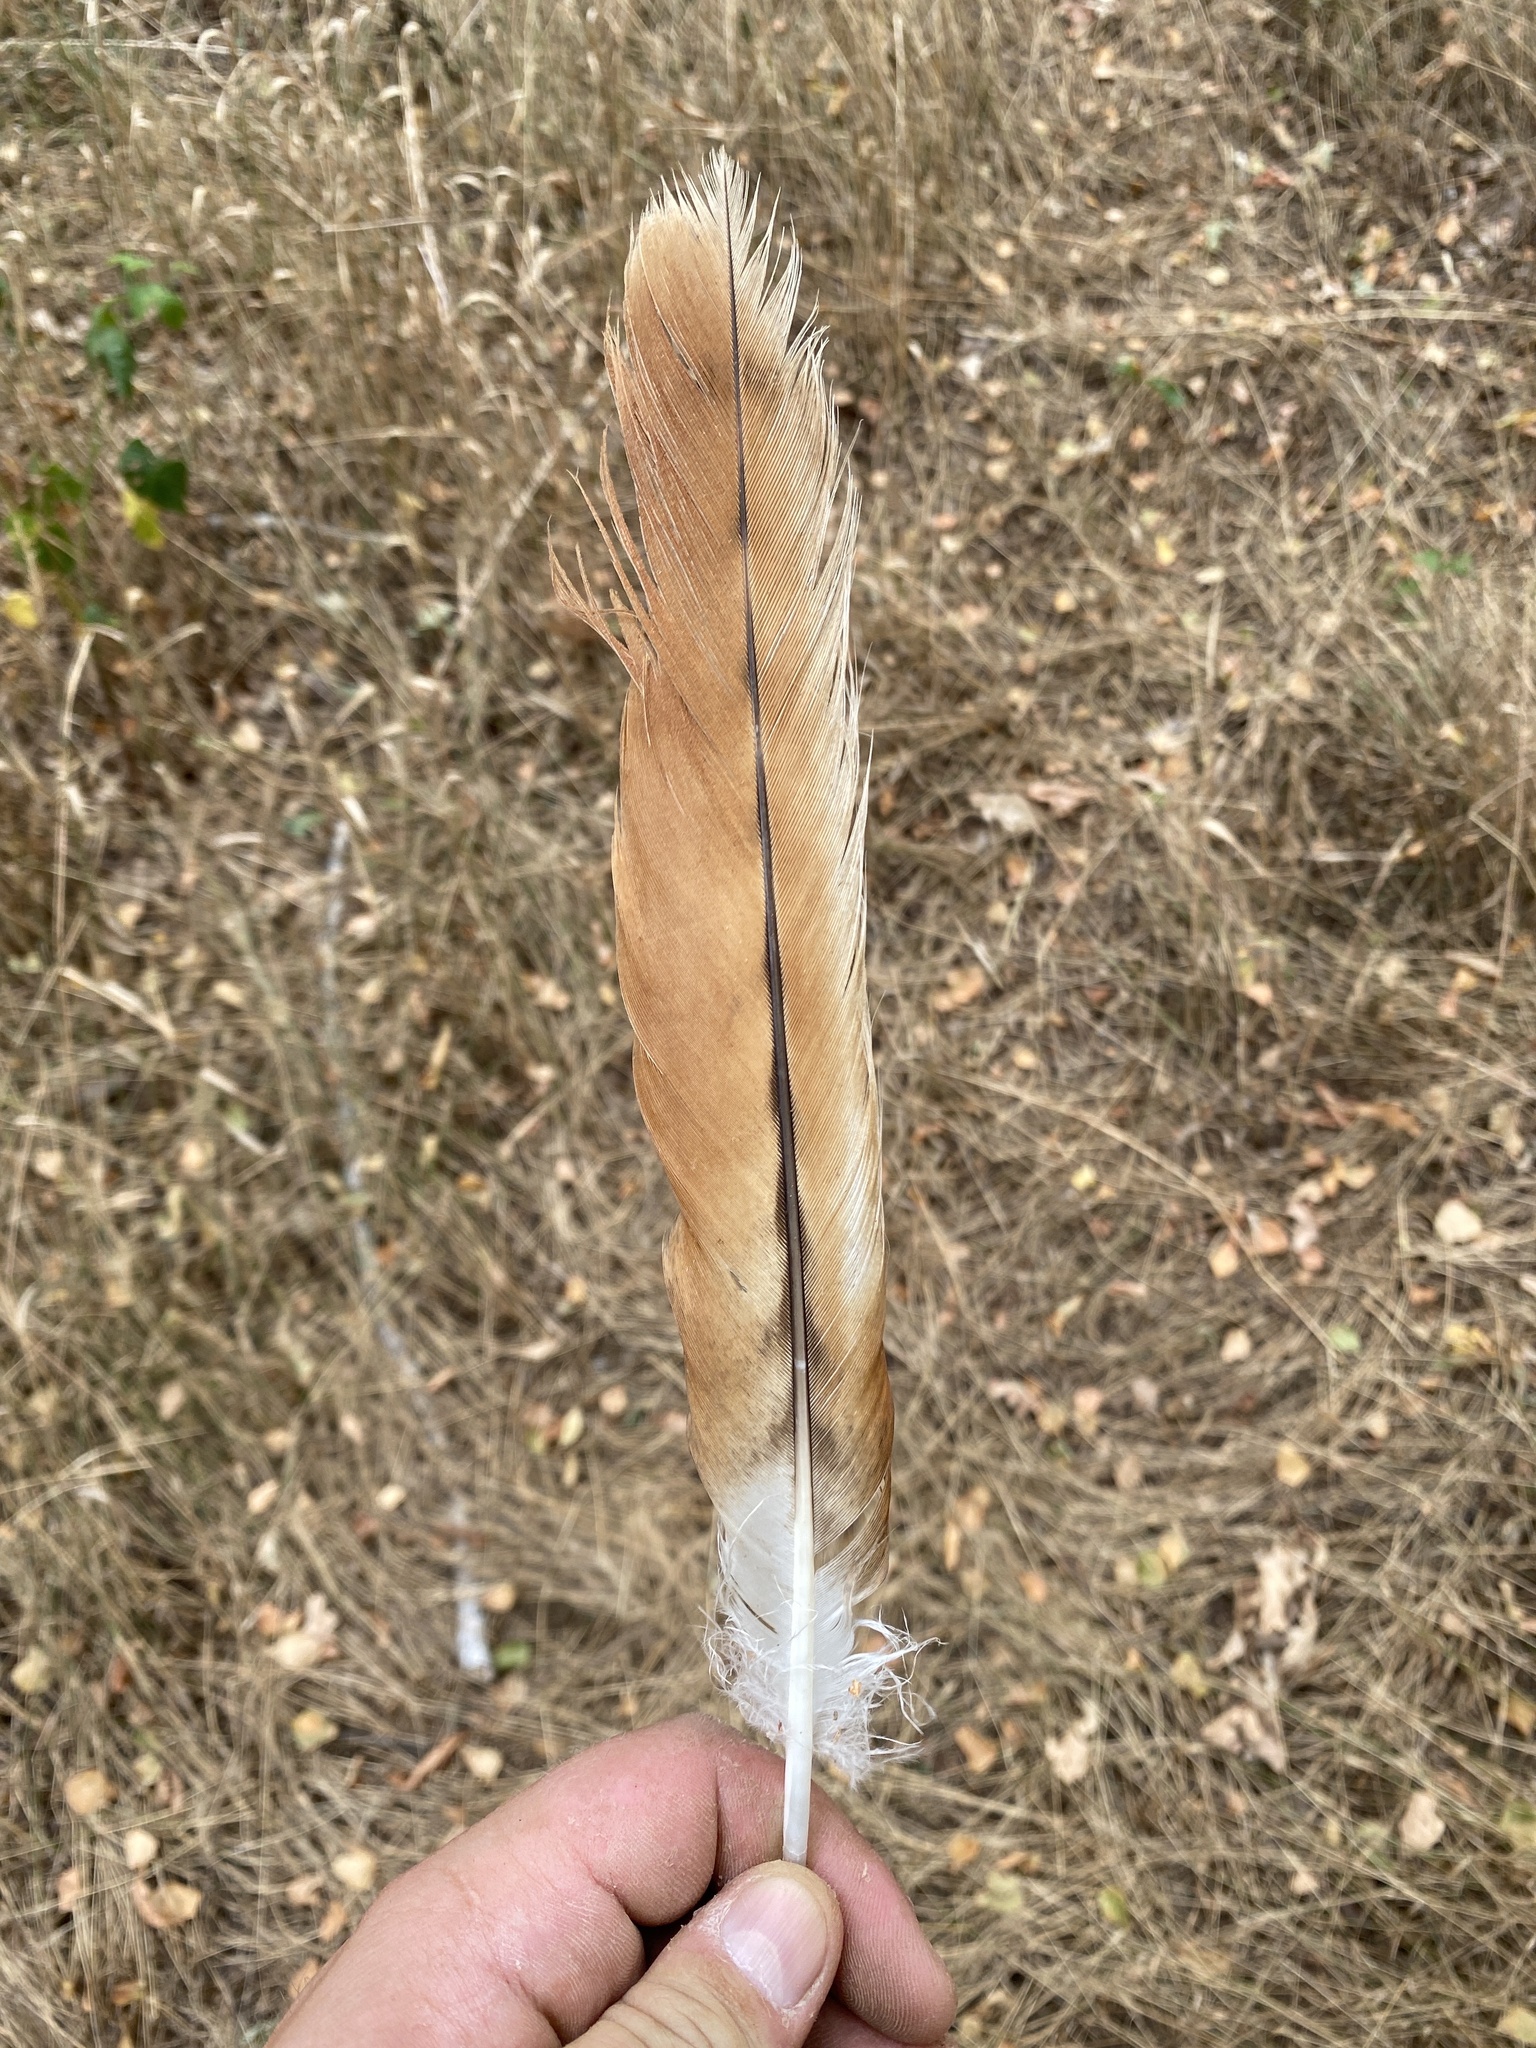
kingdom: Animalia
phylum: Chordata
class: Aves
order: Accipitriformes
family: Accipitridae
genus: Milvus
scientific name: Milvus milvus
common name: Red kite
